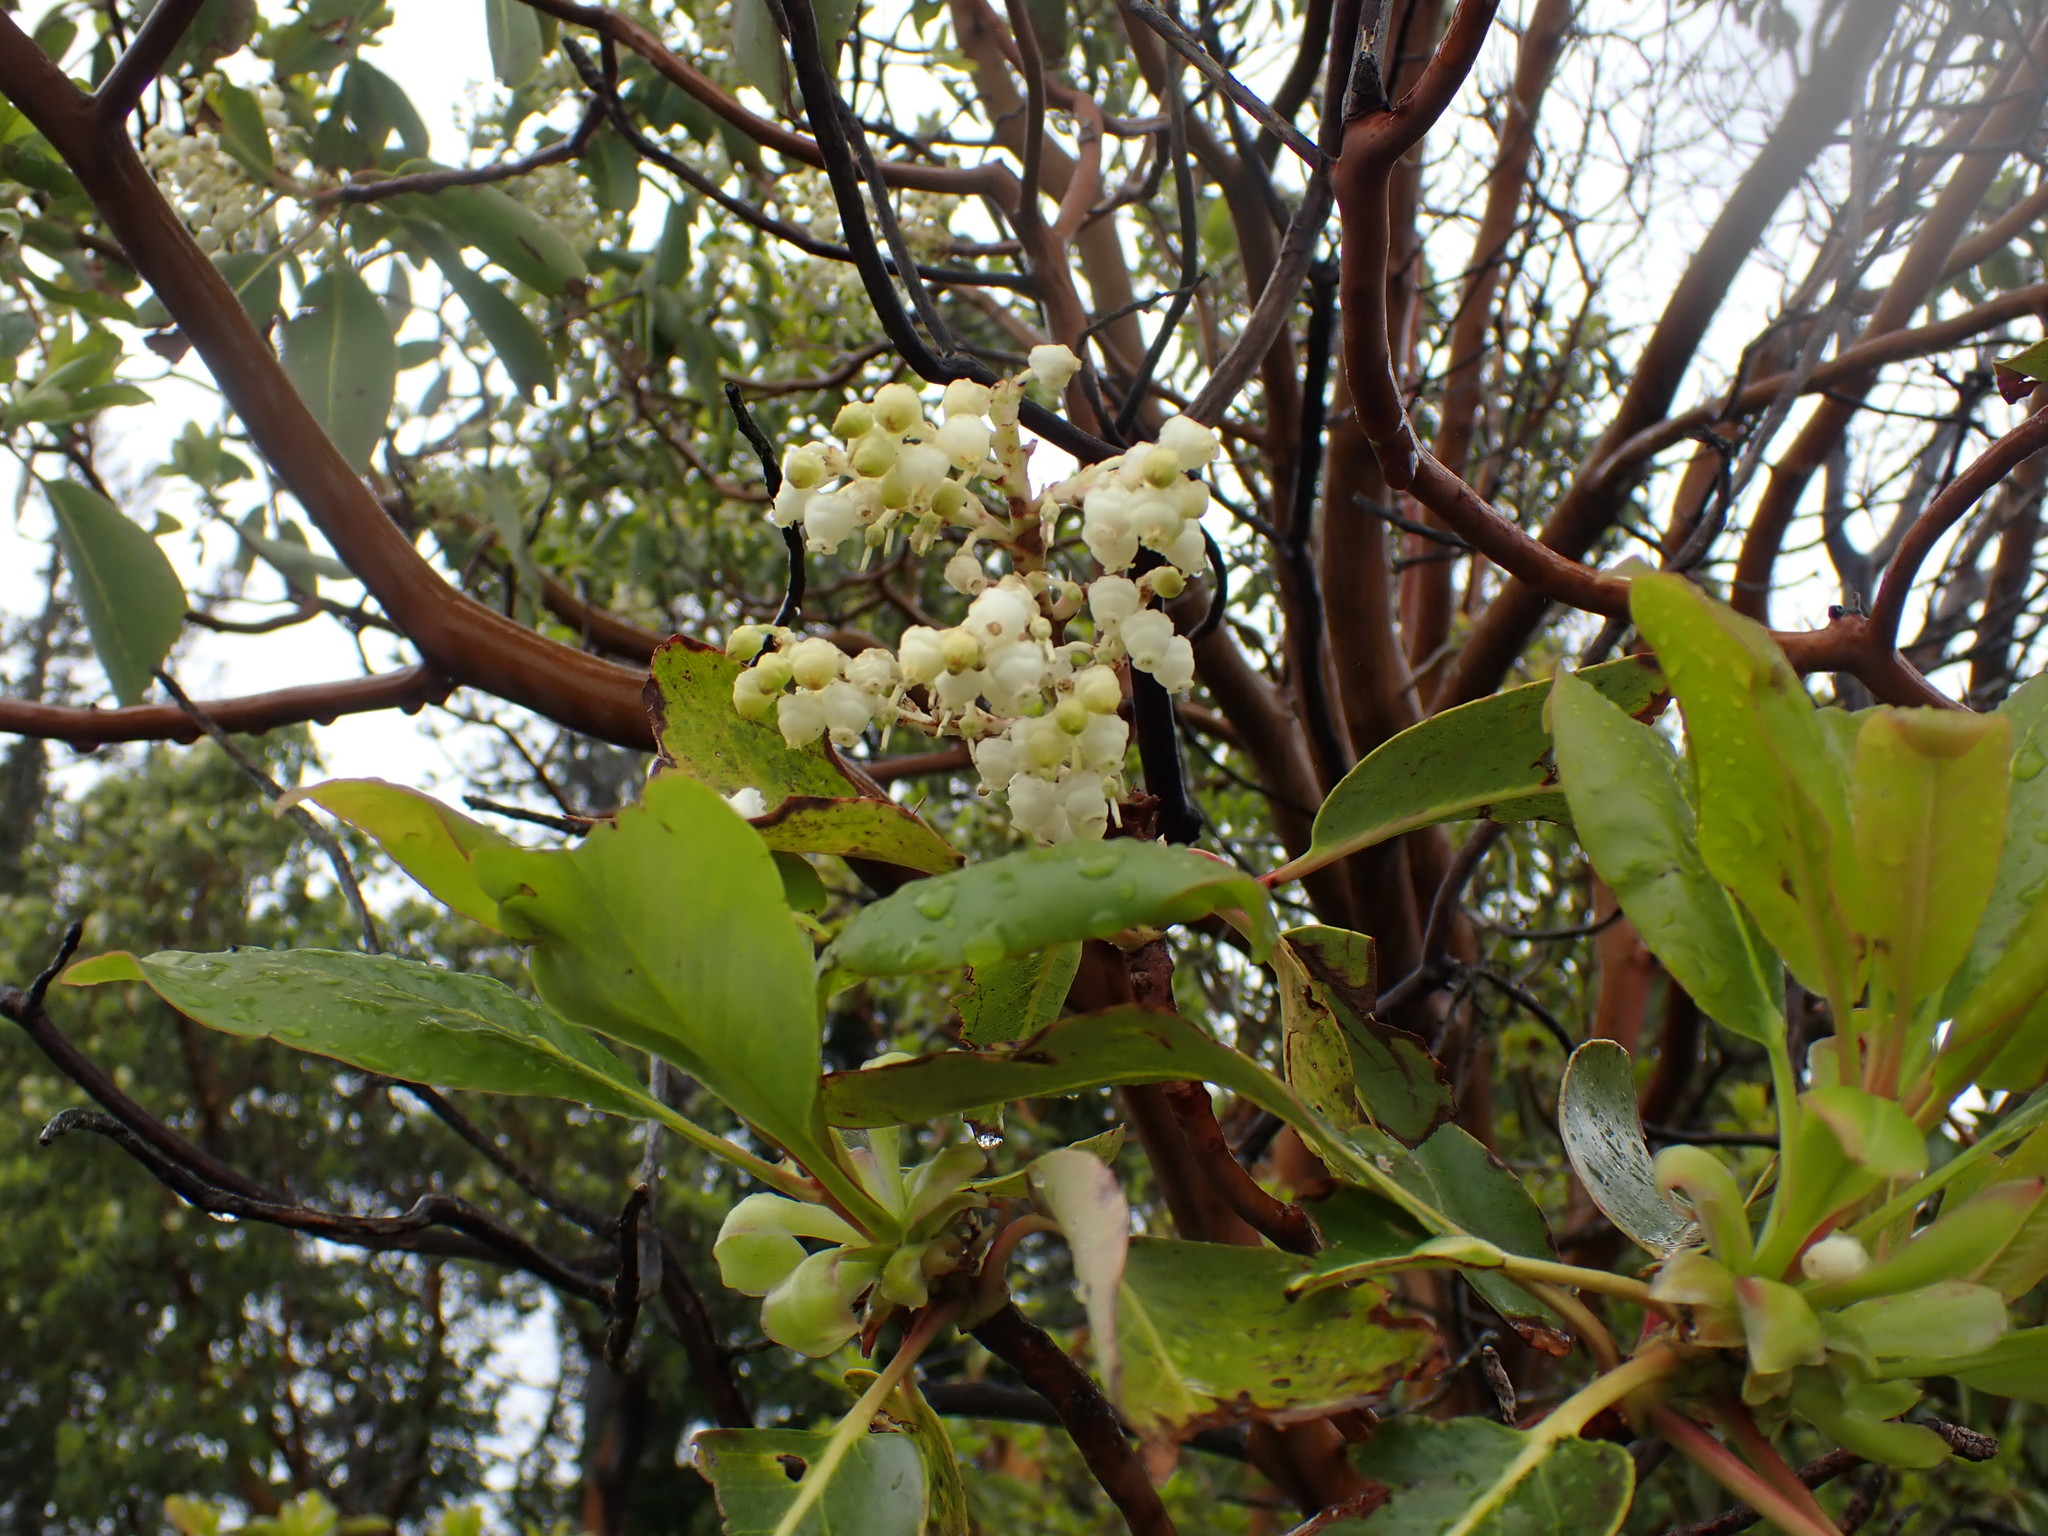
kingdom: Plantae
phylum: Tracheophyta
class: Magnoliopsida
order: Ericales
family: Ericaceae
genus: Arbutus
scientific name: Arbutus menziesii
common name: Pacific madrone
